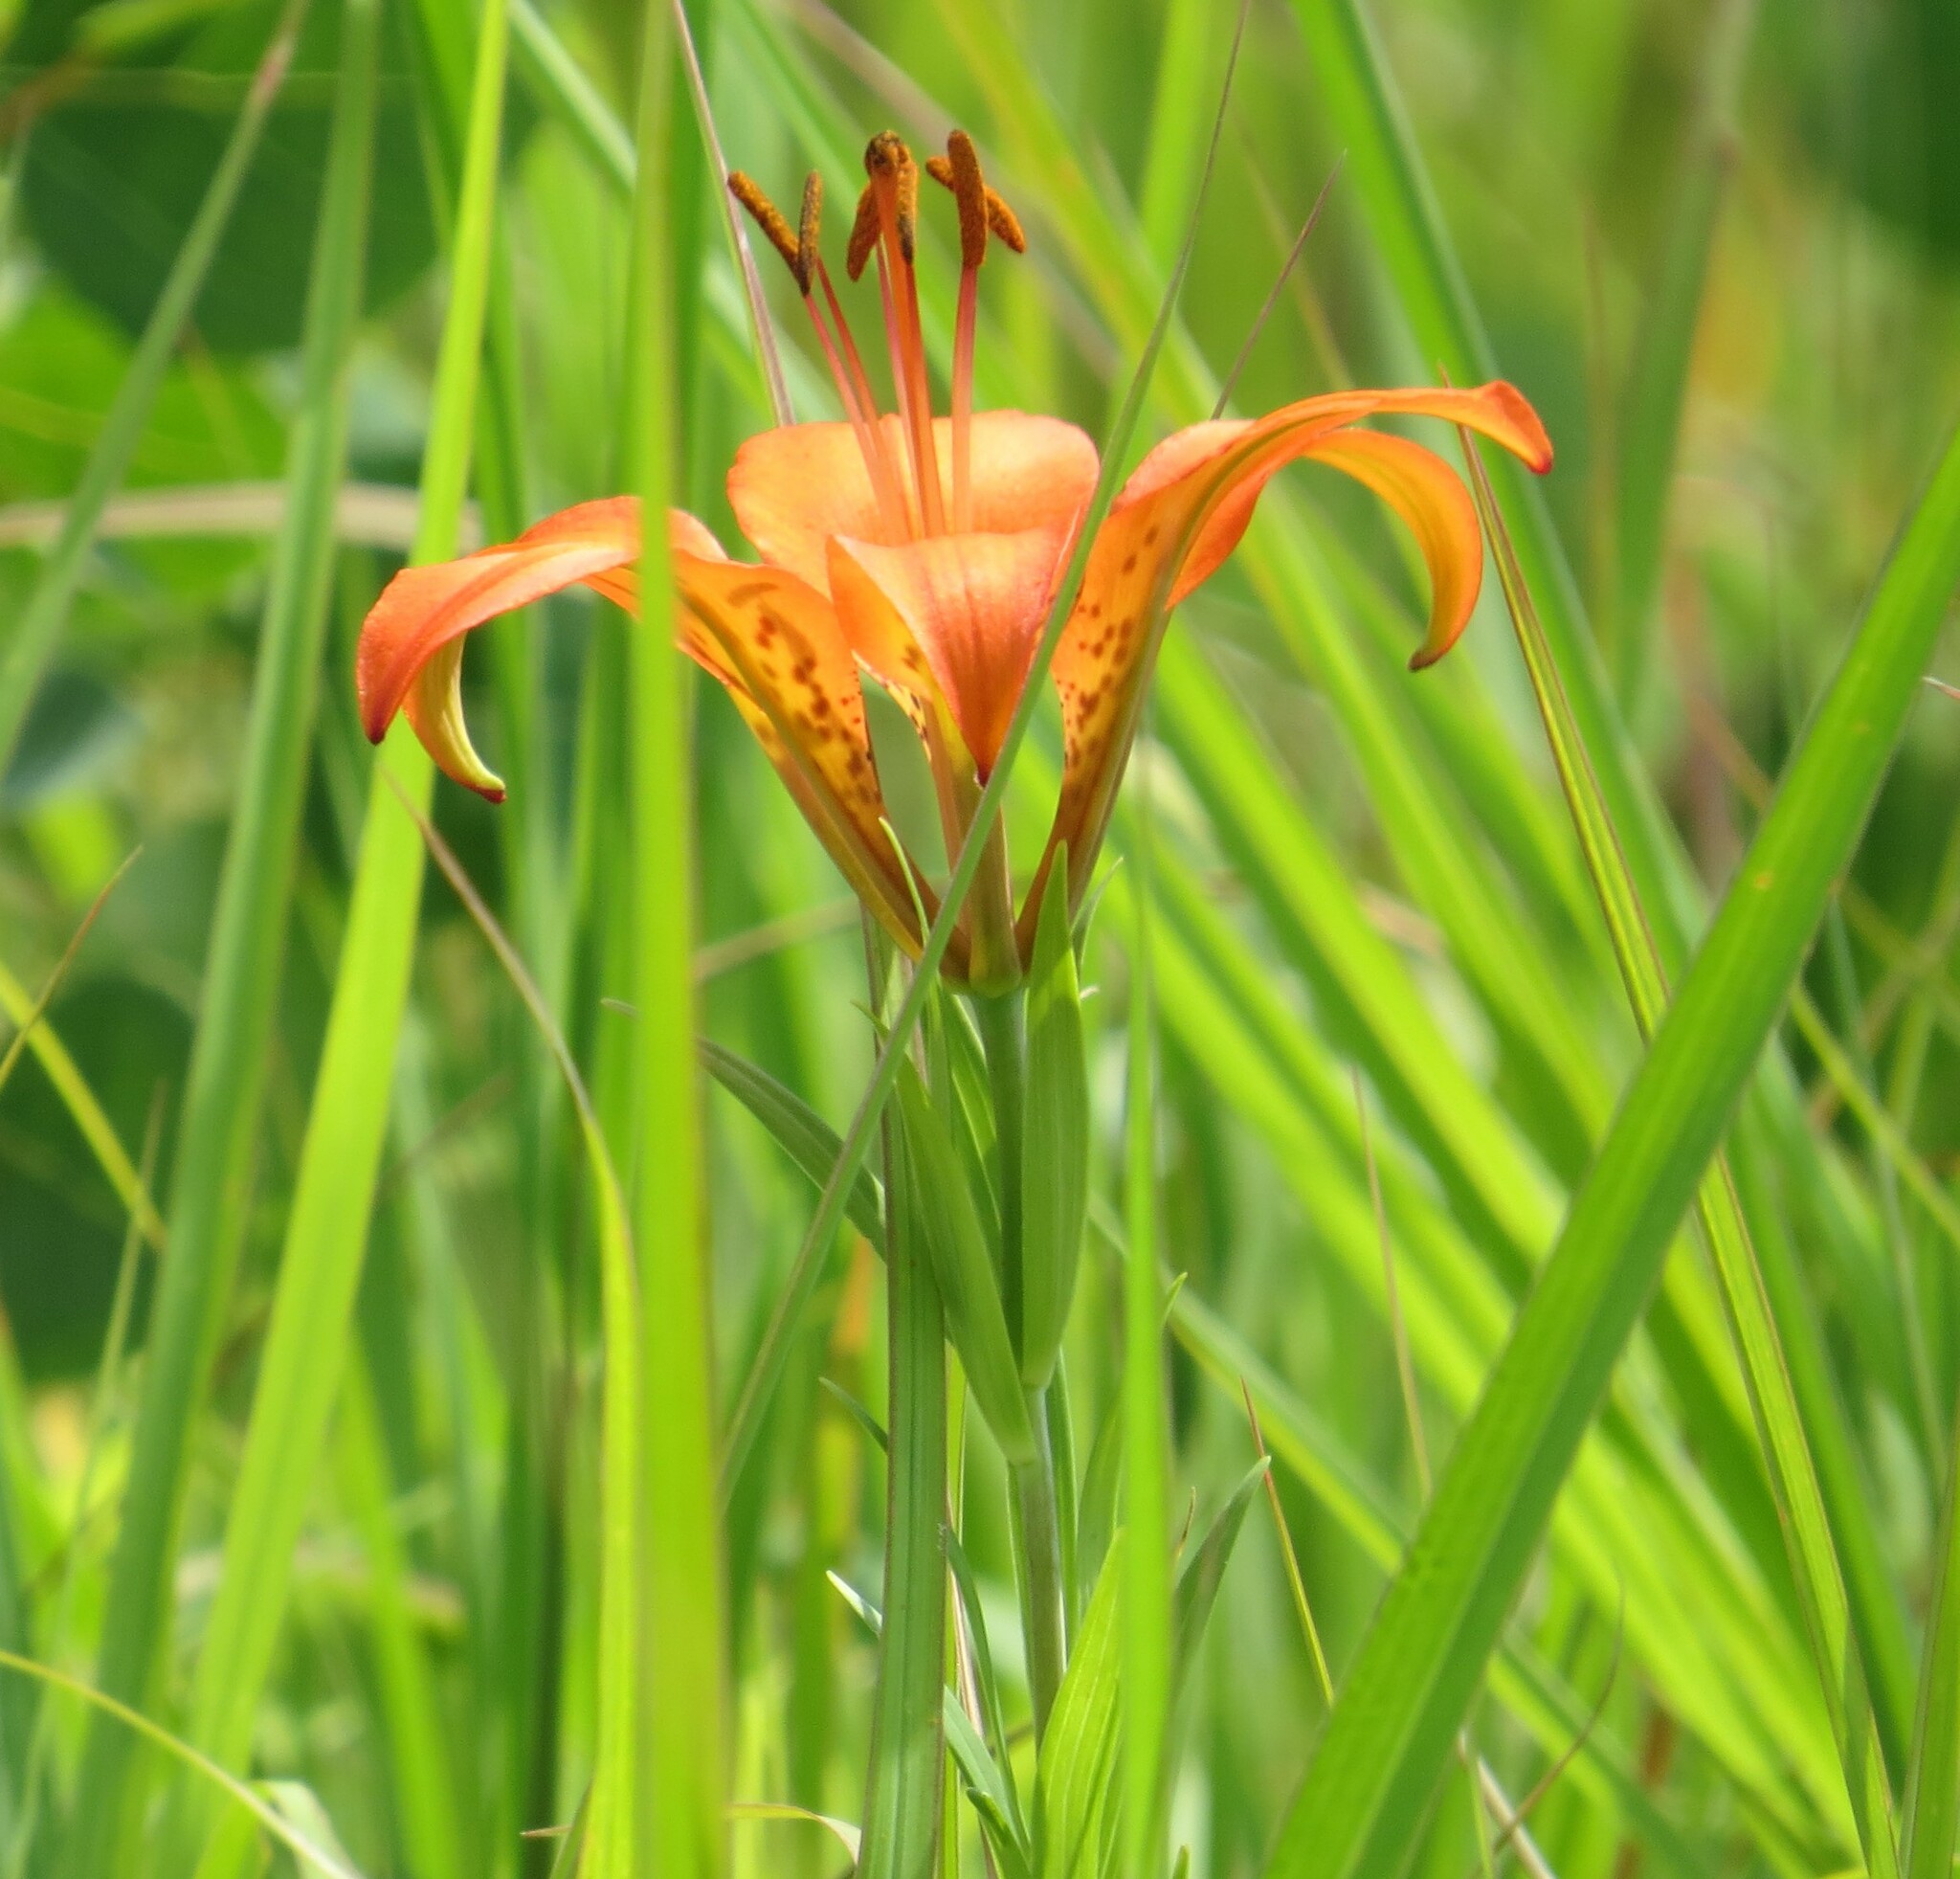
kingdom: Plantae
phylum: Tracheophyta
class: Liliopsida
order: Liliales
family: Liliaceae
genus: Lilium
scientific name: Lilium philadelphicum
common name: Red lily
